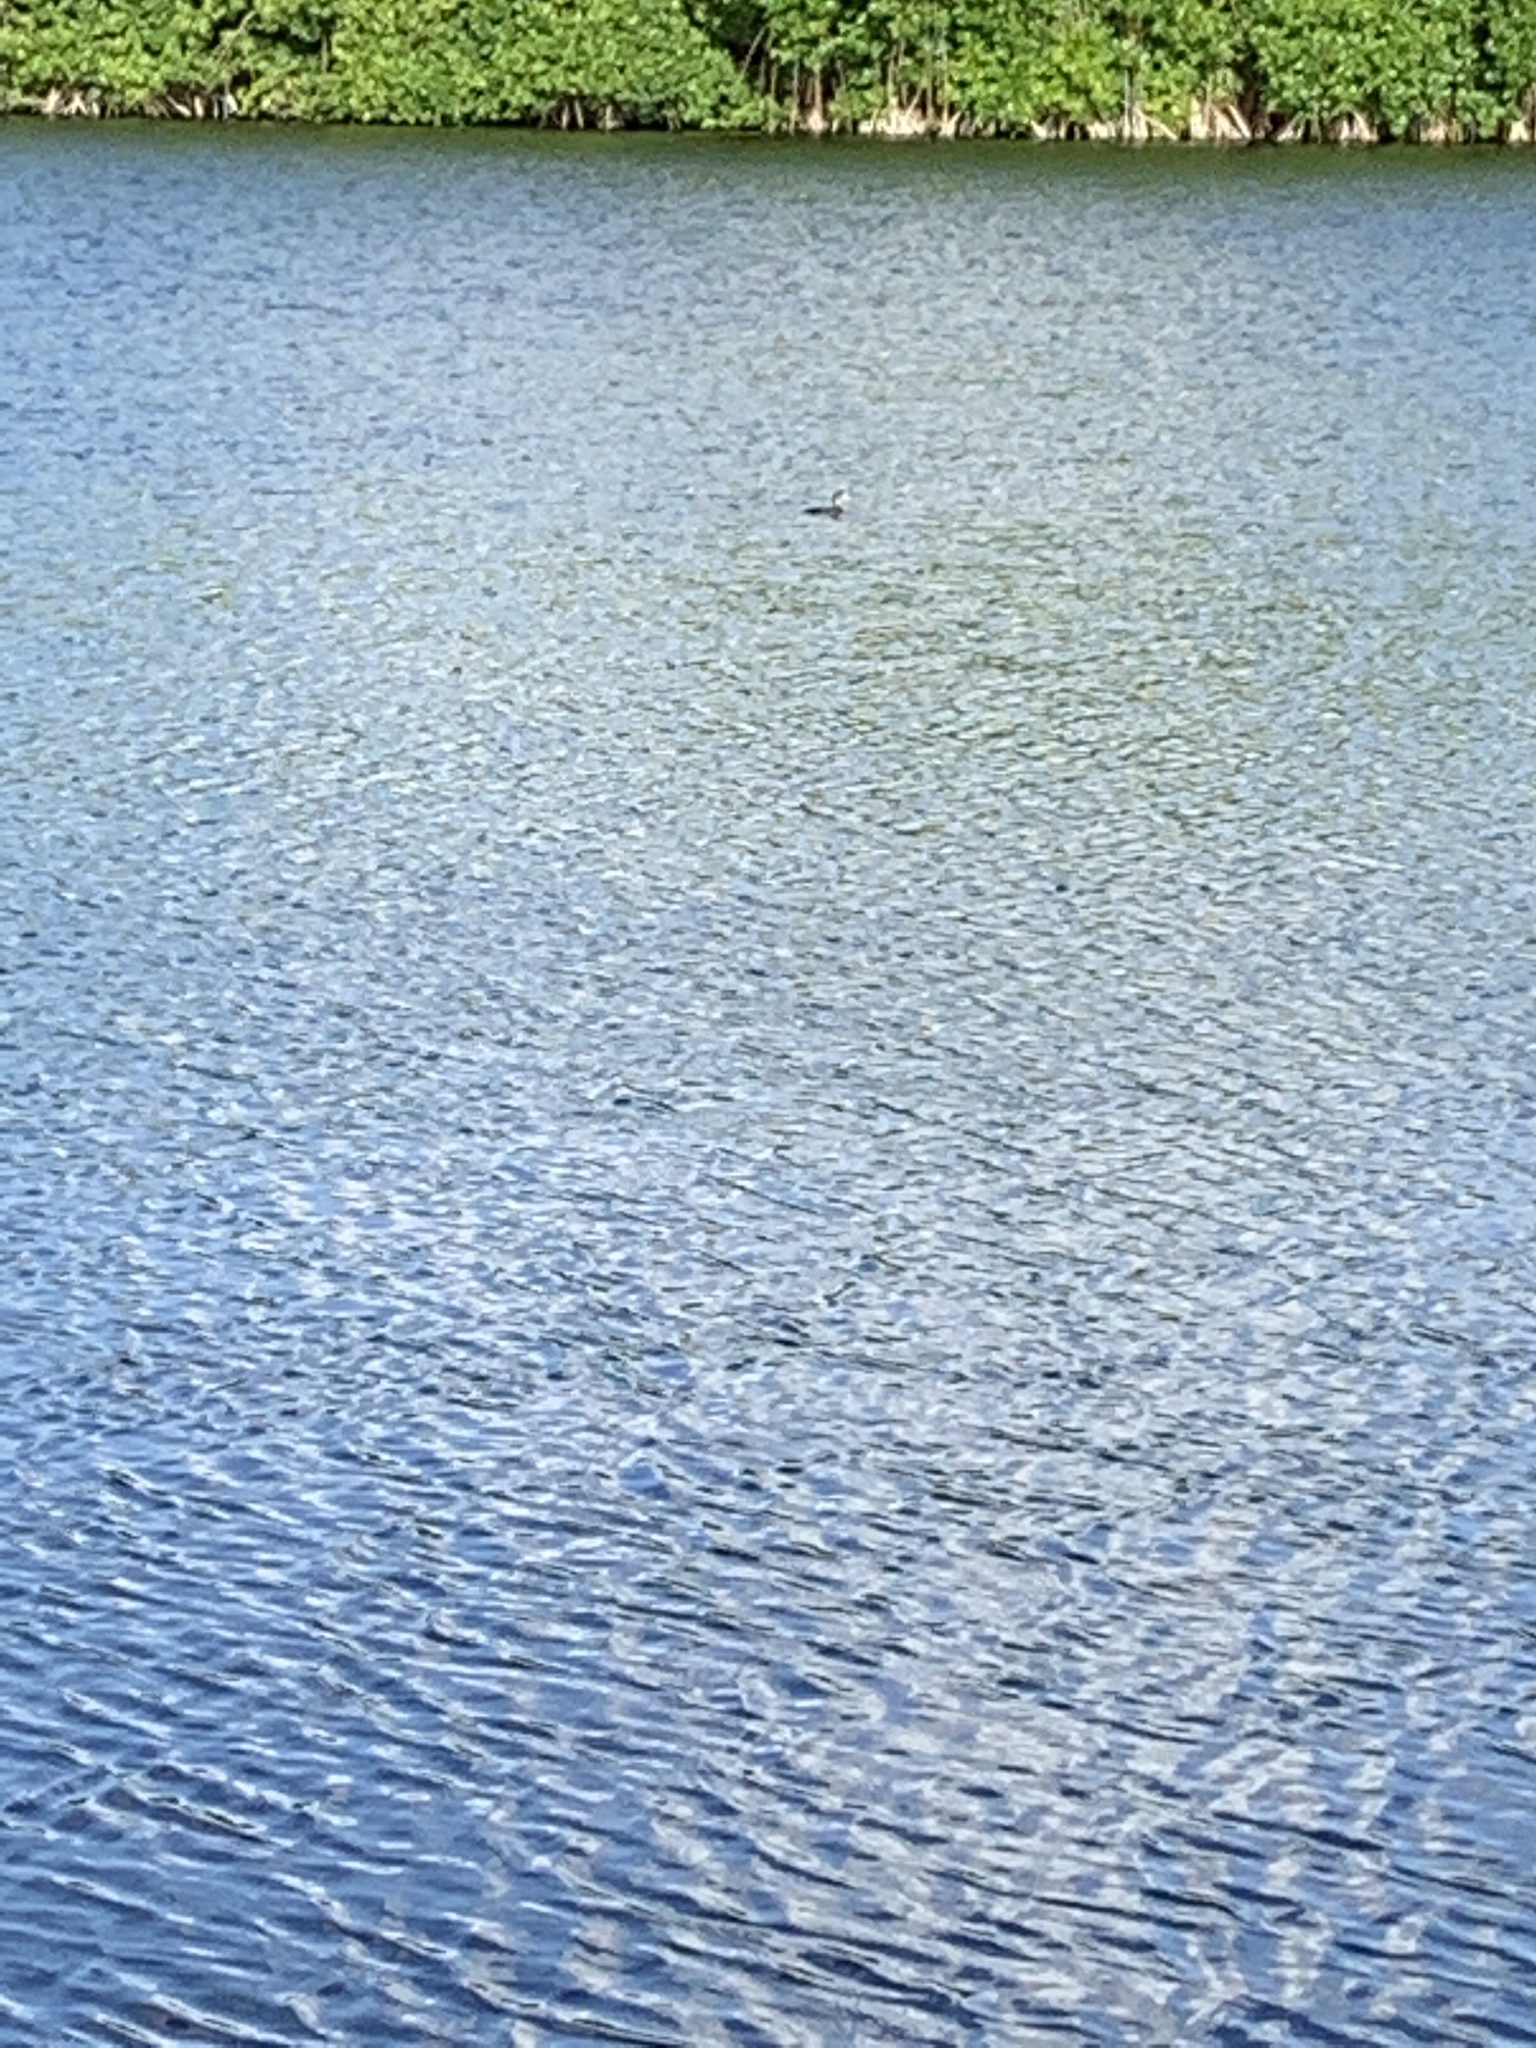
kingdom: Animalia
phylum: Chordata
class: Aves
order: Podicipediformes
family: Podicipedidae
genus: Podilymbus
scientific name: Podilymbus podiceps
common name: Pied-billed grebe
